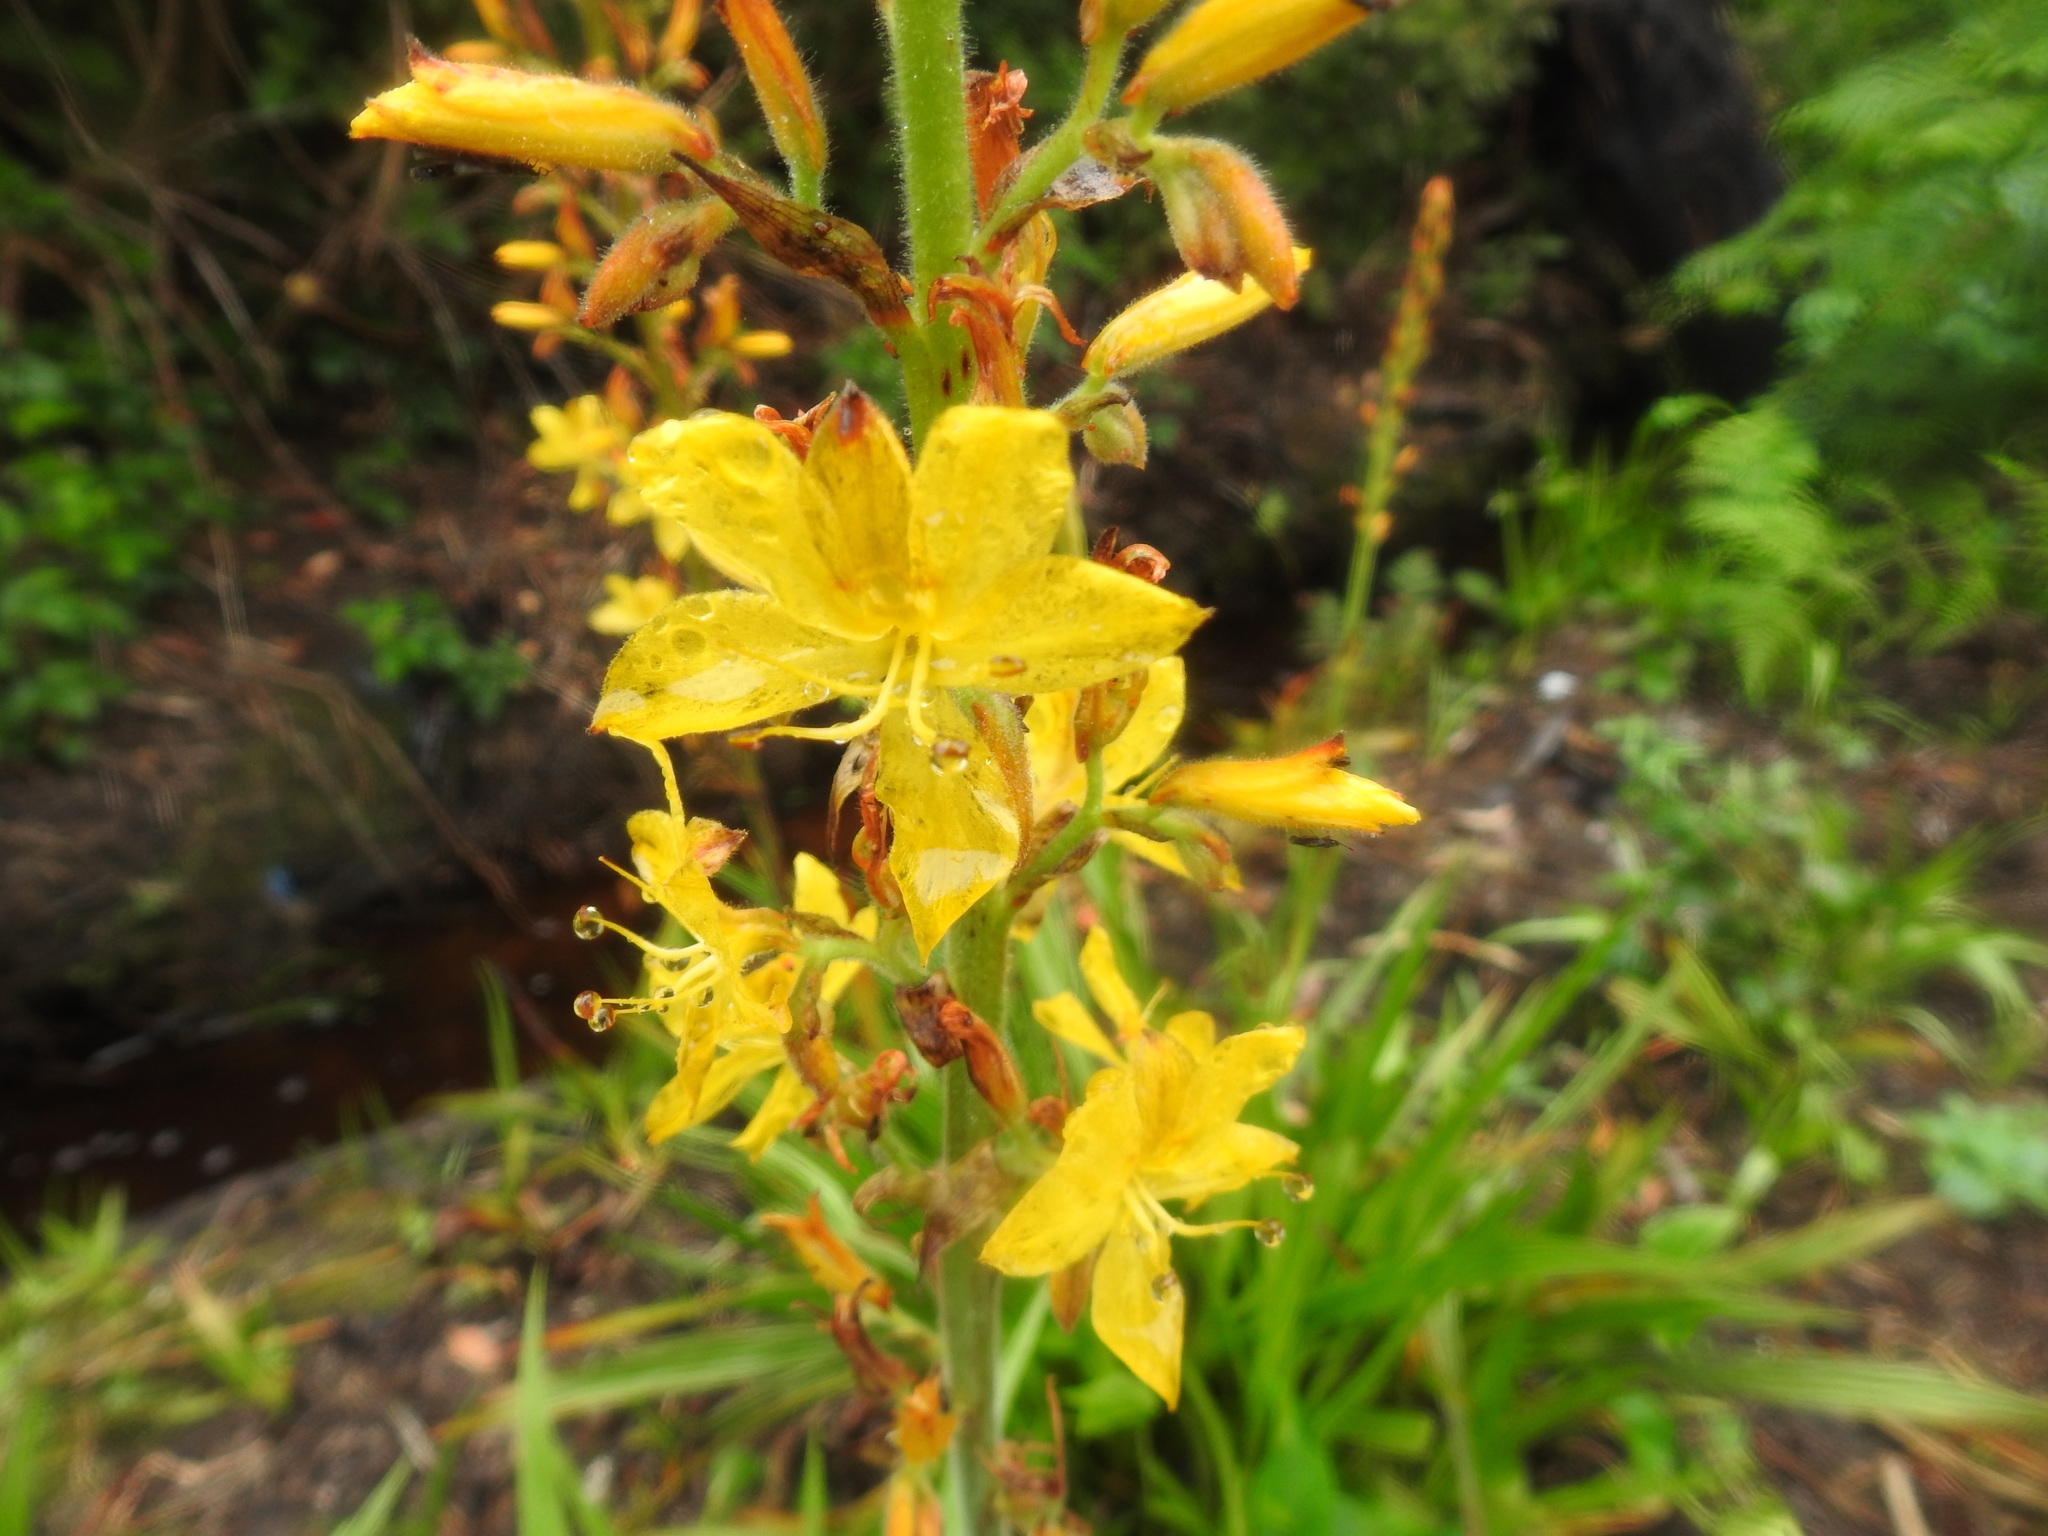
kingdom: Plantae
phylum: Tracheophyta
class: Liliopsida
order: Commelinales
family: Haemodoraceae
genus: Wachendorfia
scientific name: Wachendorfia thyrsiflora
